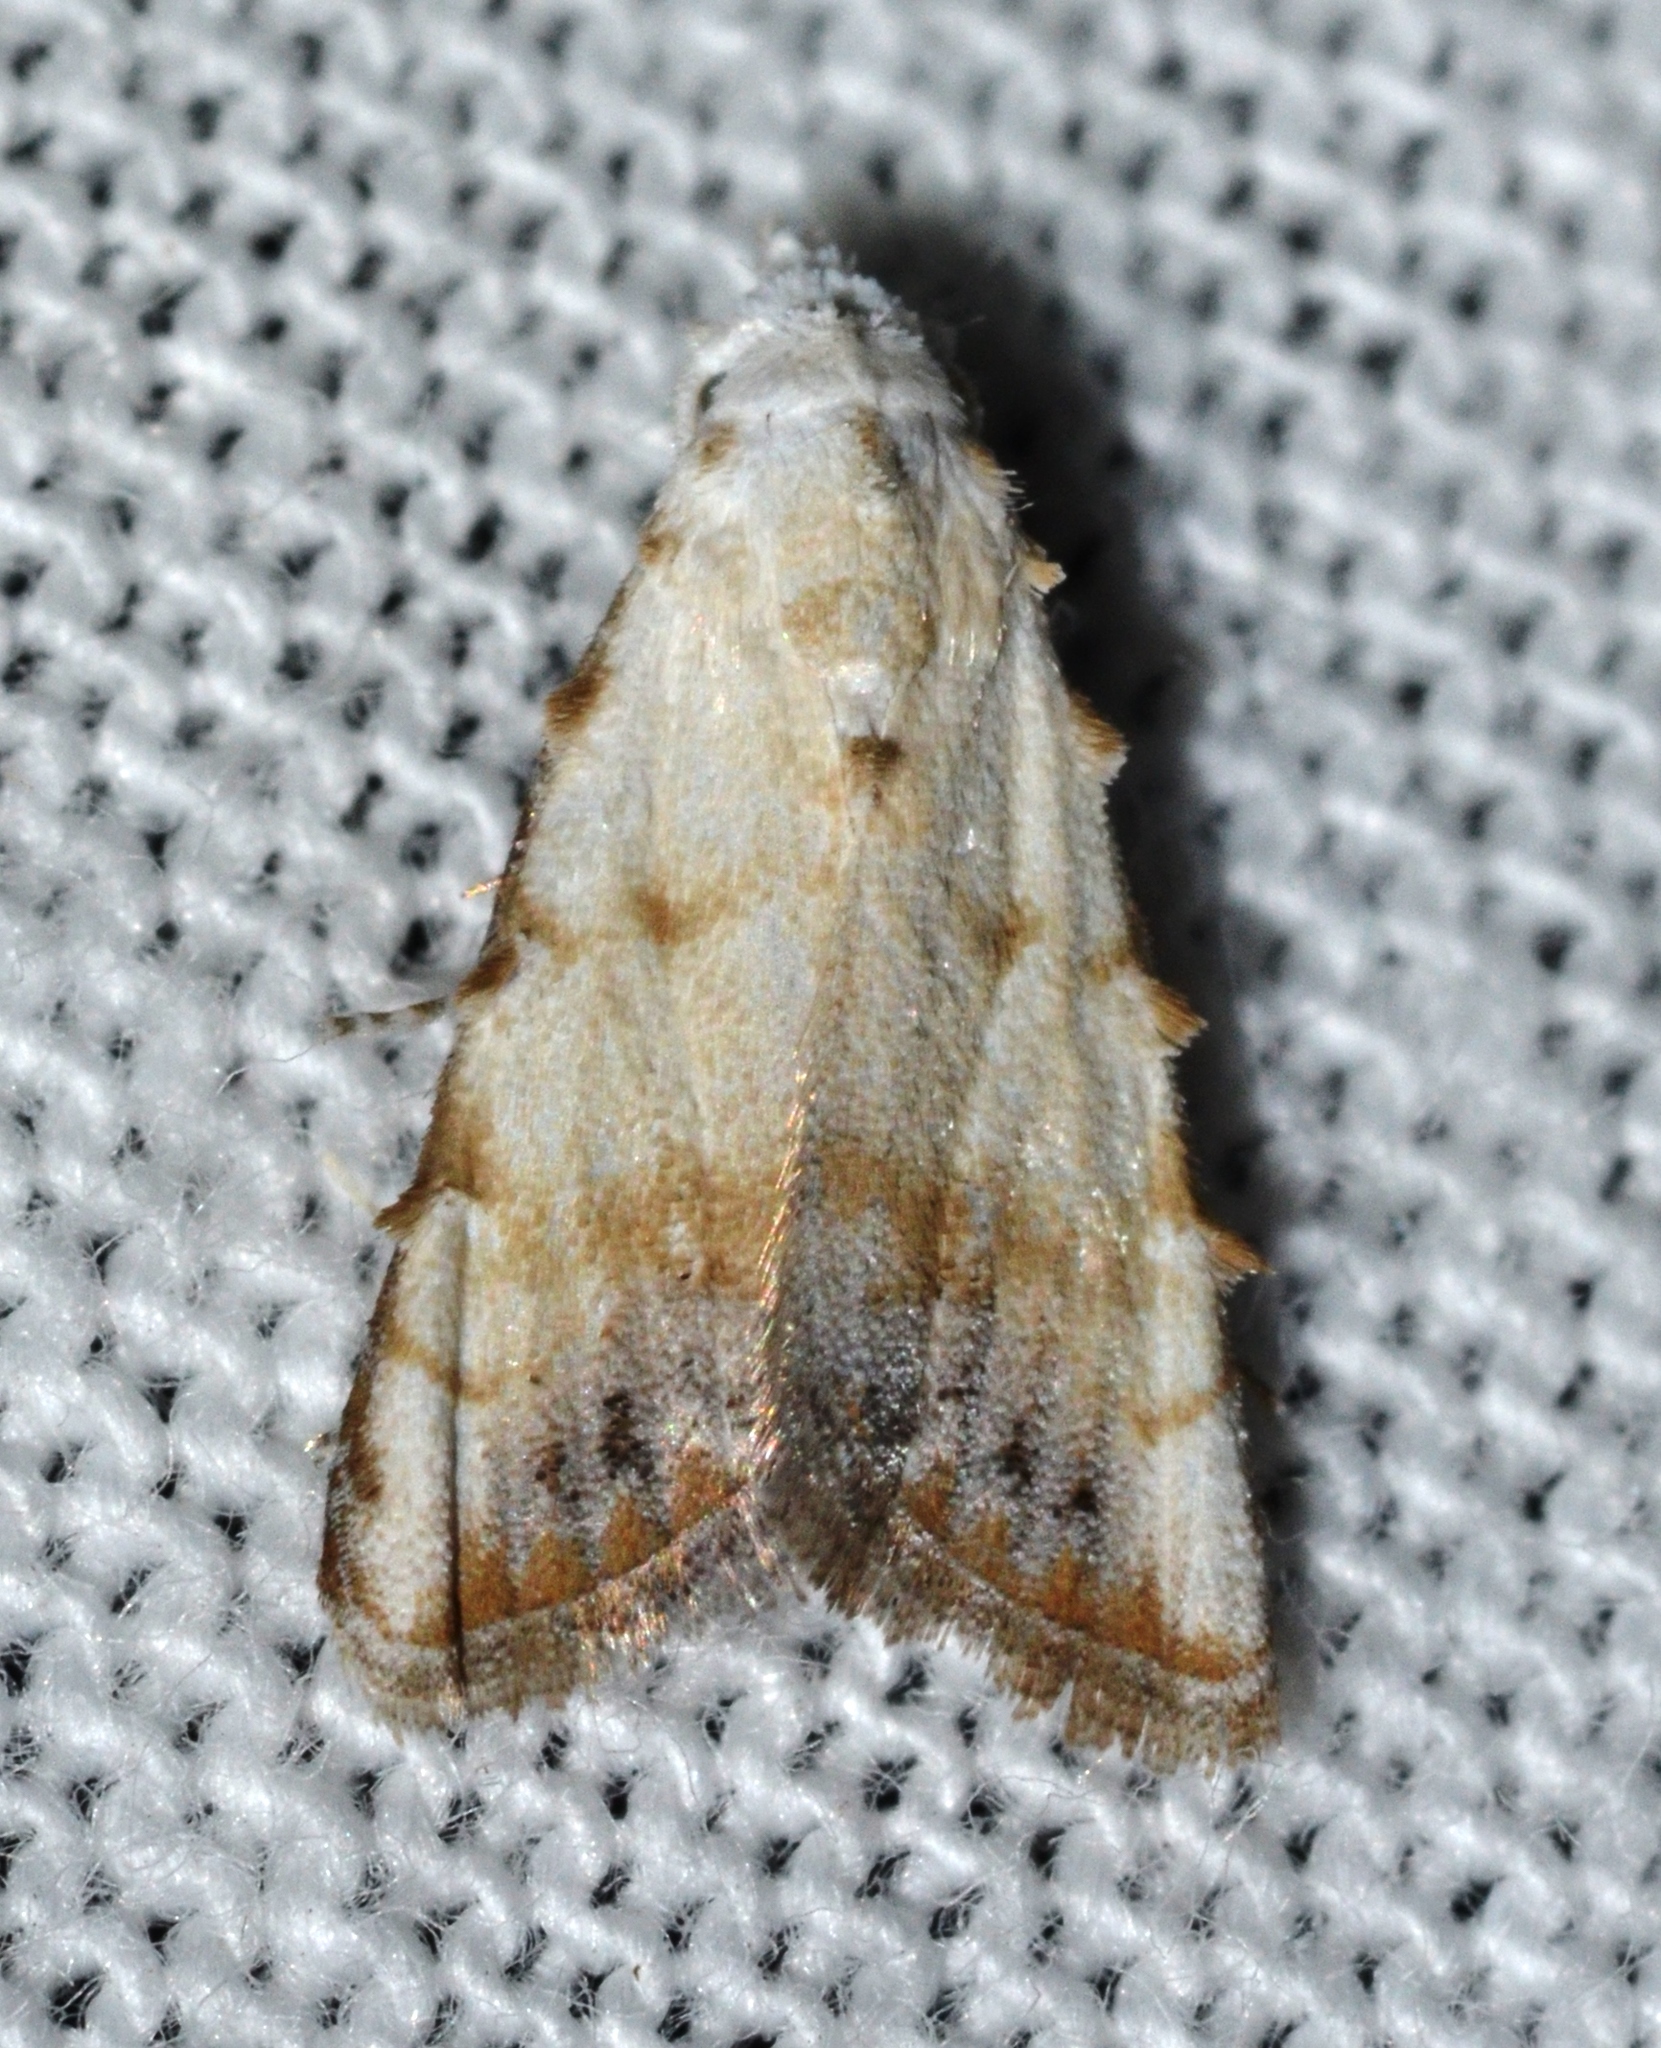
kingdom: Animalia
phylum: Arthropoda
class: Insecta
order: Lepidoptera
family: Nolidae
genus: Nola
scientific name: Nola cereella
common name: Sorghum webworm moth
